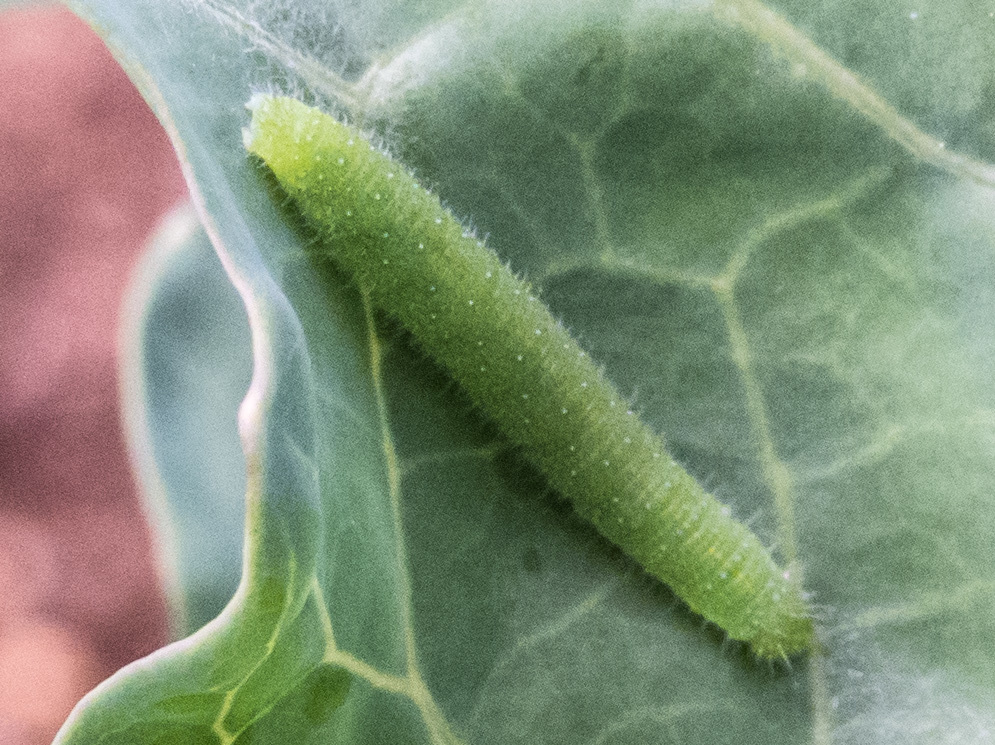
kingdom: Animalia
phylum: Arthropoda
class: Insecta
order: Lepidoptera
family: Pieridae
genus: Pieris
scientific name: Pieris rapae
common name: Small white
